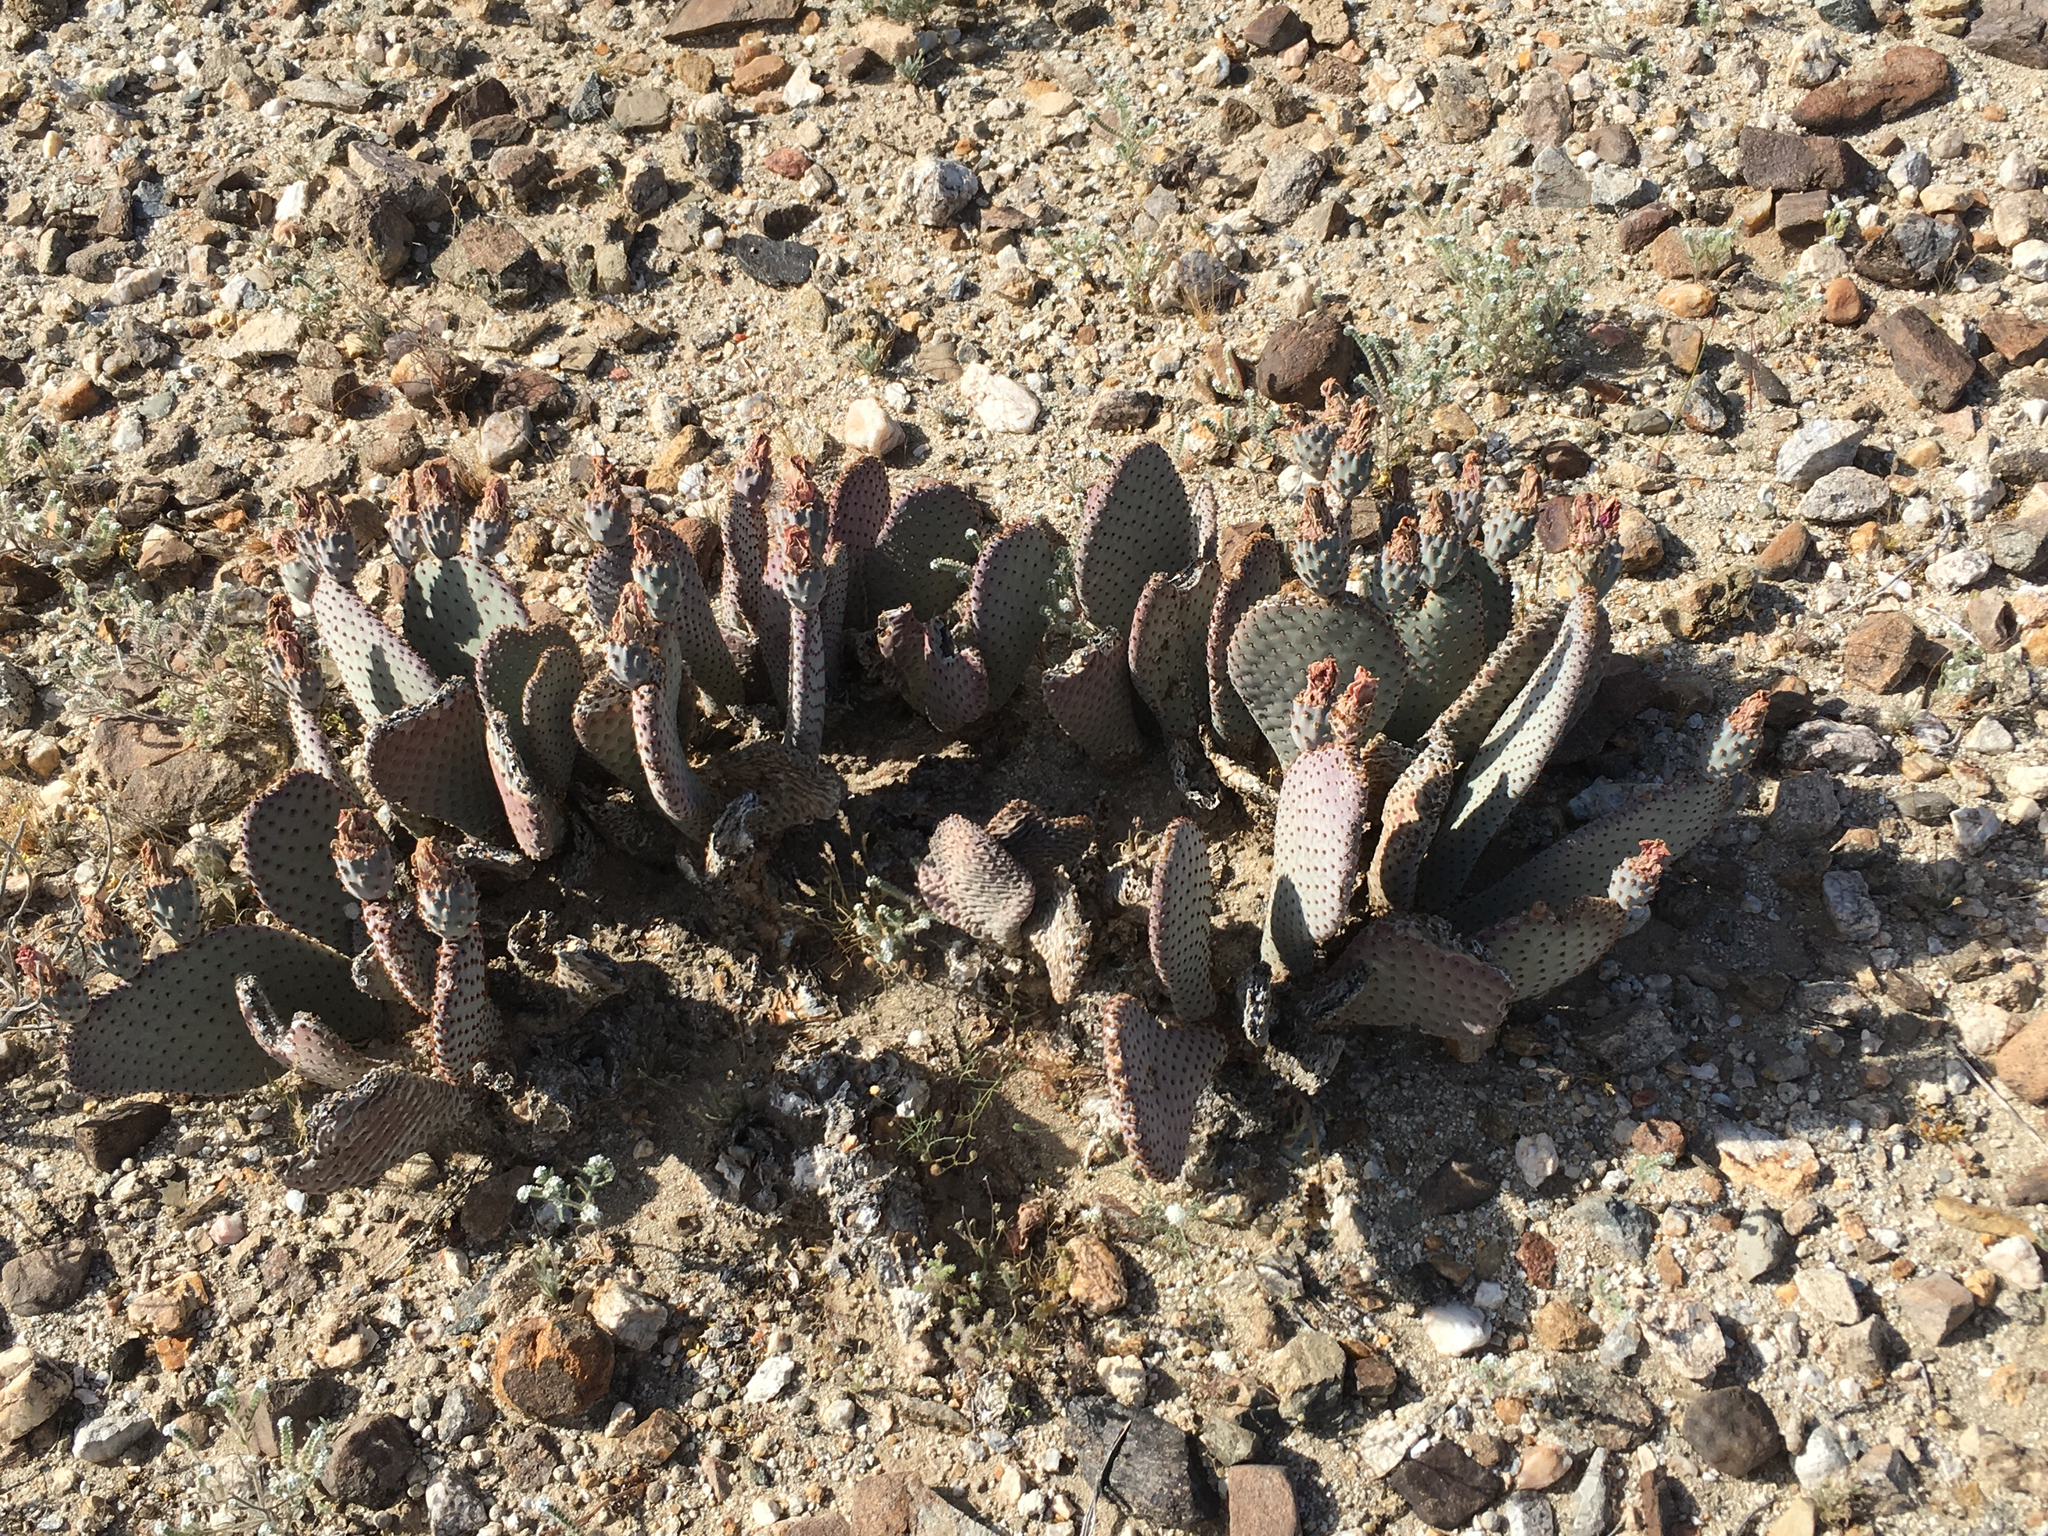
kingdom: Plantae
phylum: Tracheophyta
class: Magnoliopsida
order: Caryophyllales
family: Cactaceae
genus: Opuntia
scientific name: Opuntia basilaris
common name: Beavertail prickly-pear
